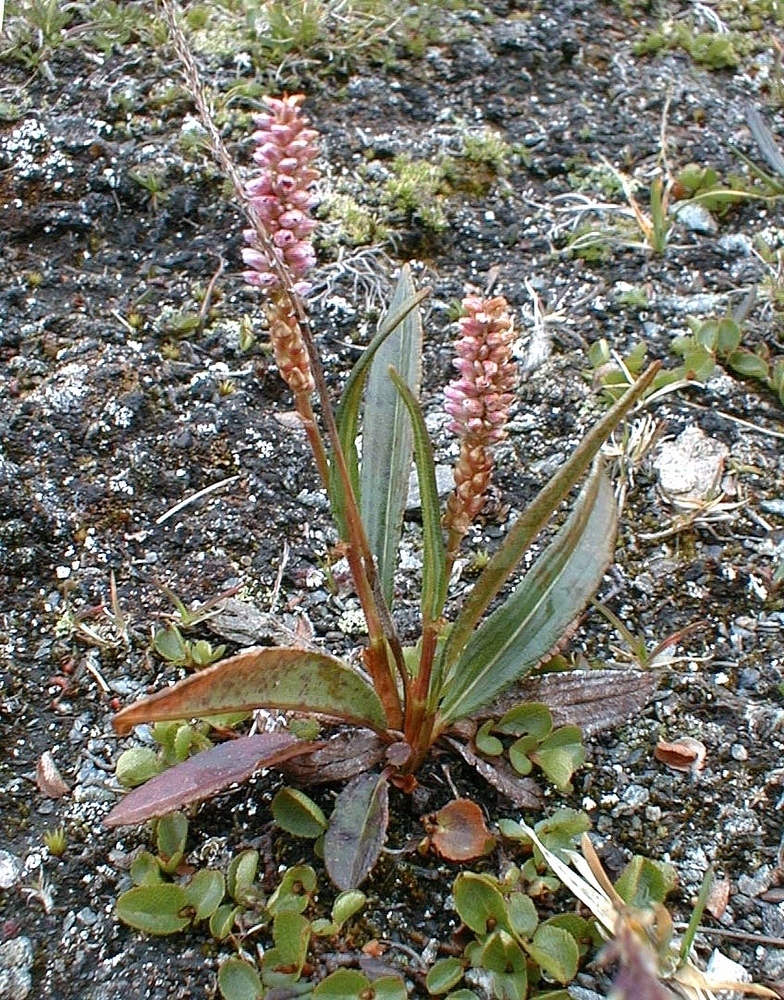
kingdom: Plantae
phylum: Tracheophyta
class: Magnoliopsida
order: Caryophyllales
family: Polygonaceae
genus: Bistorta
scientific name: Bistorta vivipara
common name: Alpine bistort
